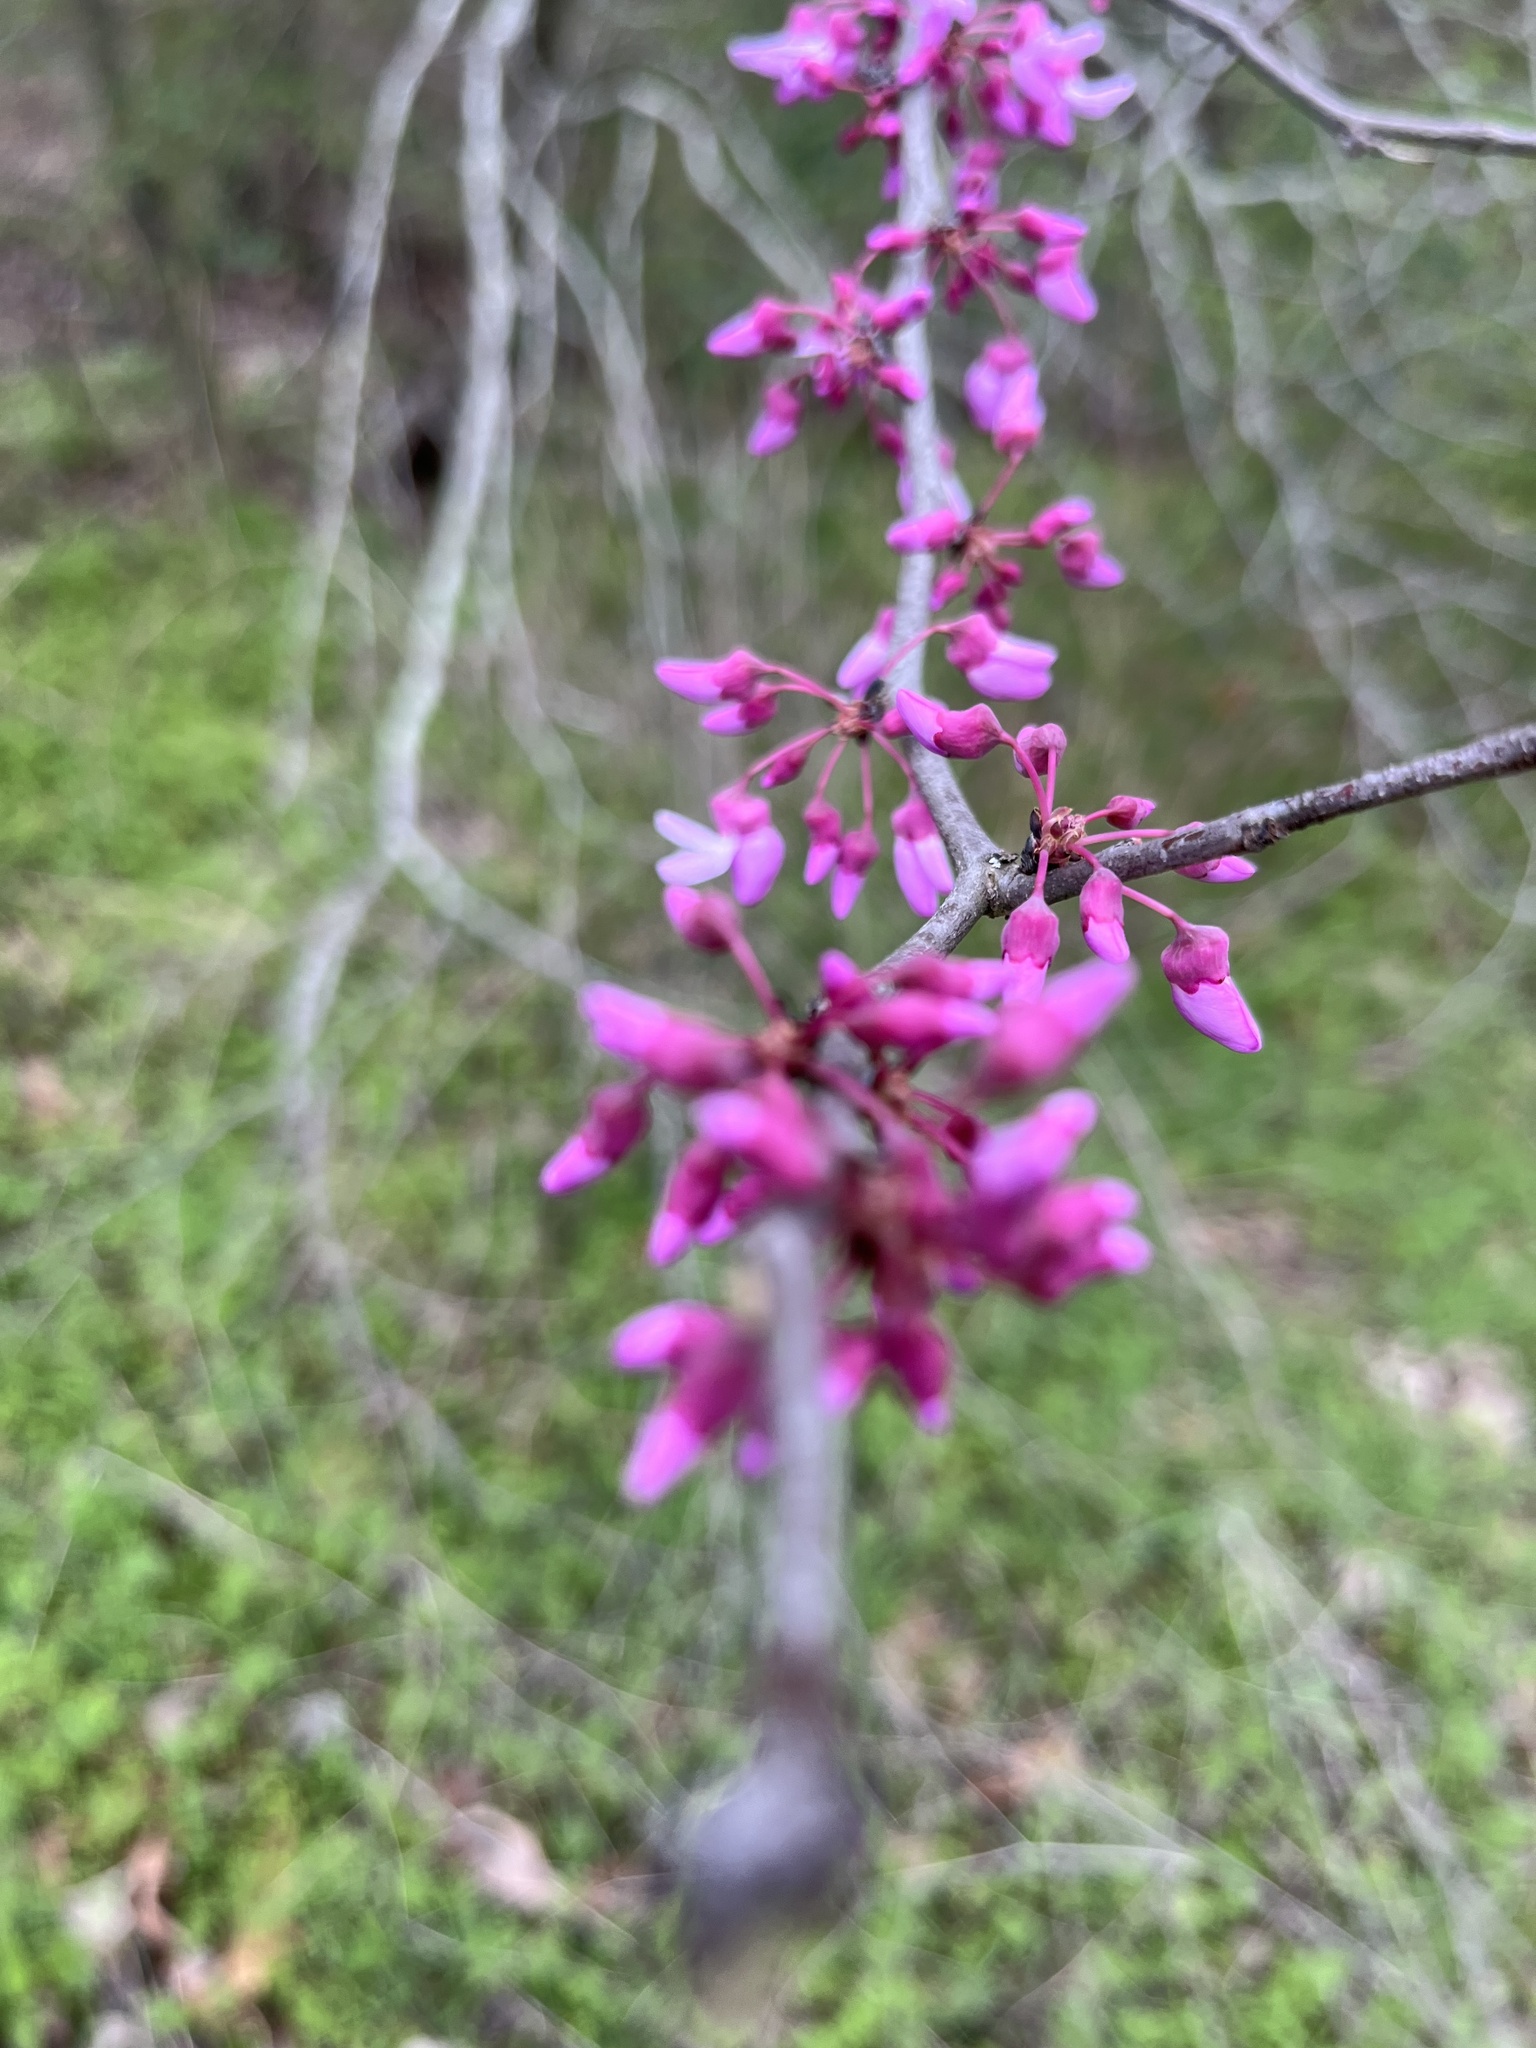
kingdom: Plantae
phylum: Tracheophyta
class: Magnoliopsida
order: Fabales
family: Fabaceae
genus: Cercis
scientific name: Cercis canadensis
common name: Eastern redbud
